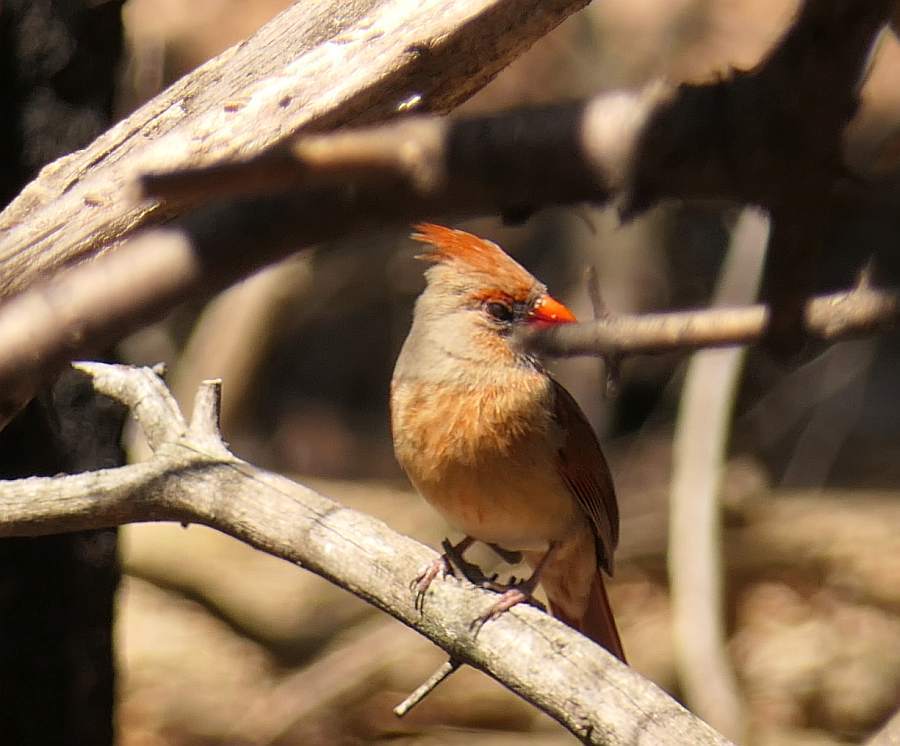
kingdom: Animalia
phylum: Chordata
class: Aves
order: Passeriformes
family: Cardinalidae
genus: Cardinalis
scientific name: Cardinalis cardinalis
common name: Northern cardinal
